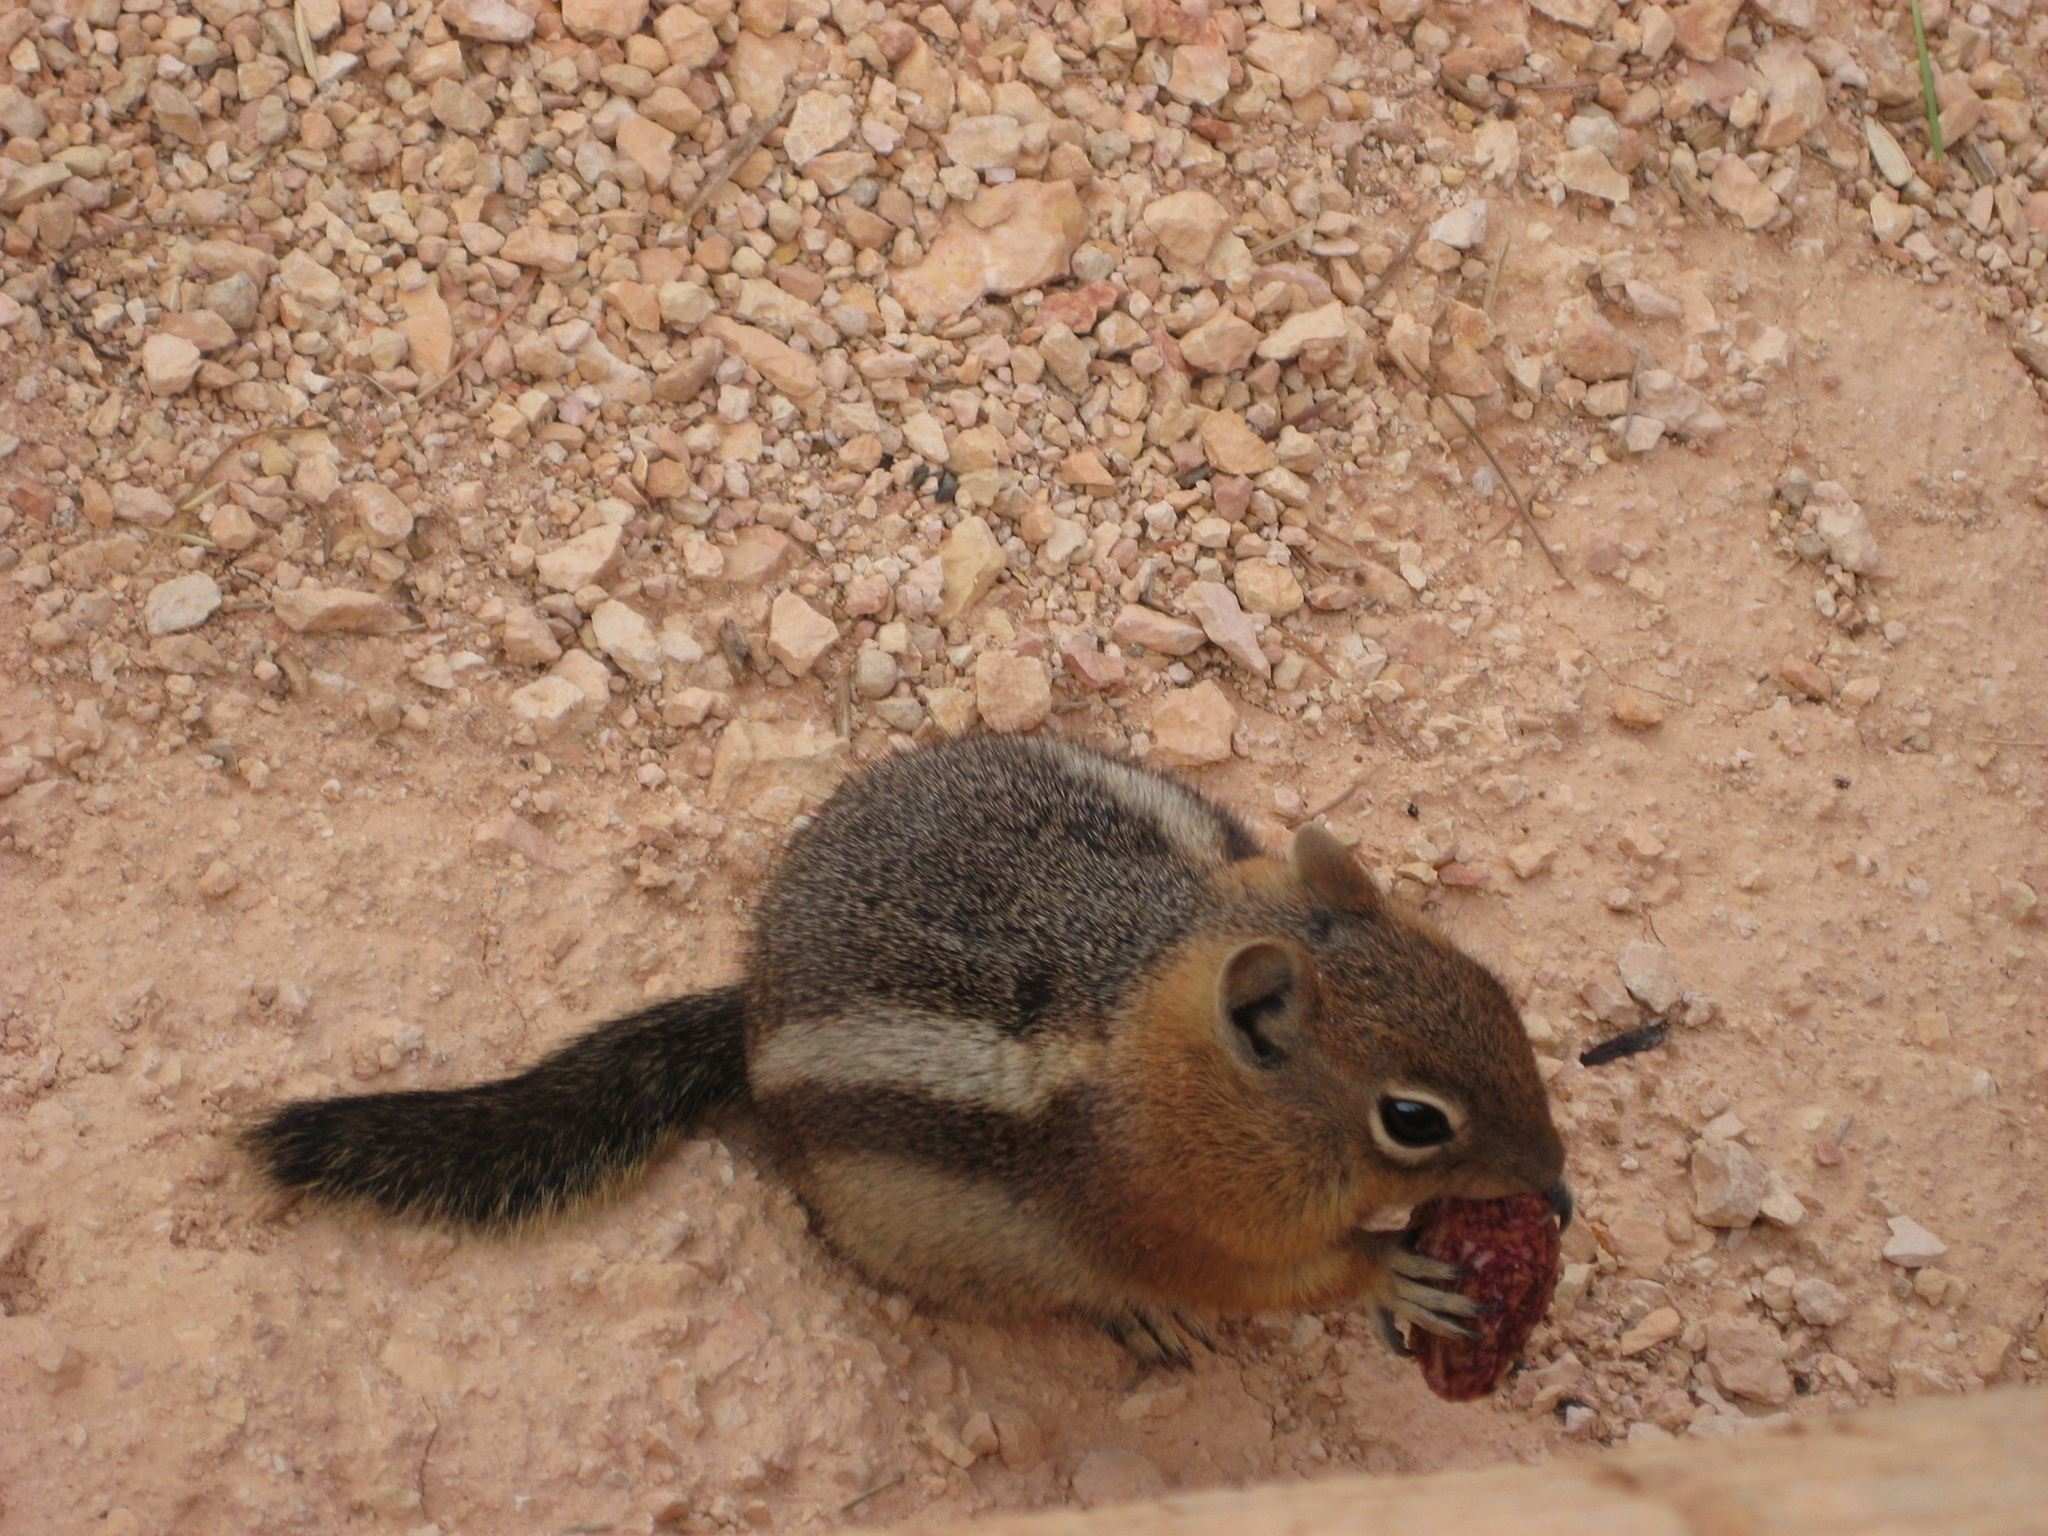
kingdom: Animalia
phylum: Chordata
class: Mammalia
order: Rodentia
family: Sciuridae
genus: Callospermophilus
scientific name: Callospermophilus lateralis
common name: Golden-mantled ground squirrel
